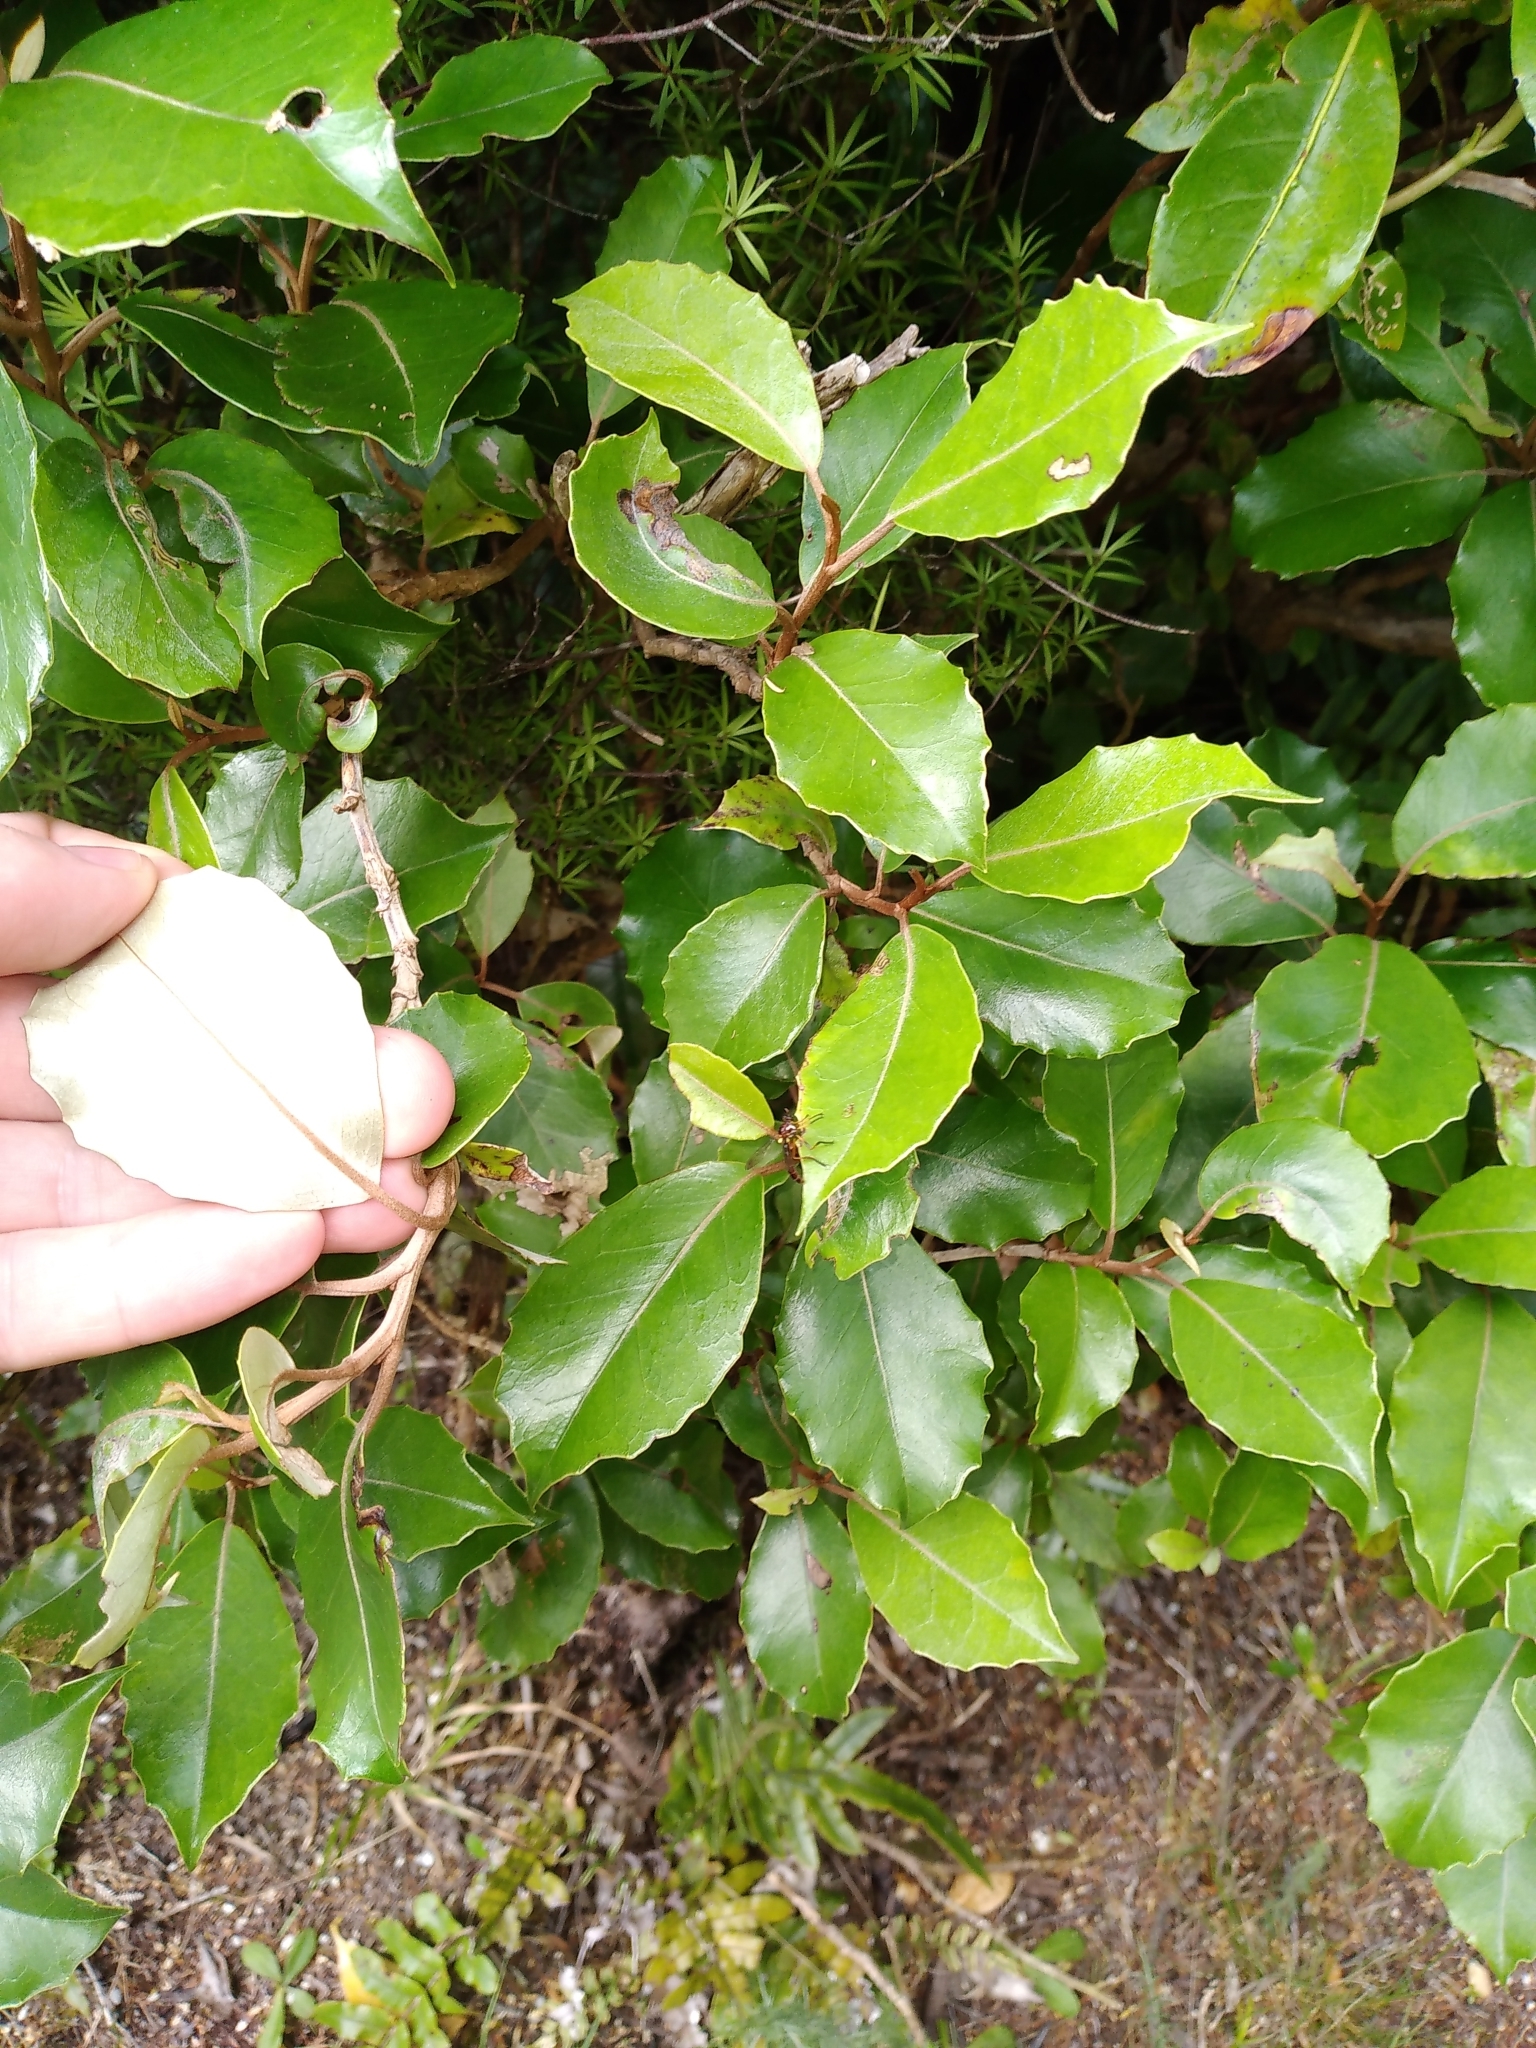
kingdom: Plantae
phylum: Tracheophyta
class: Magnoliopsida
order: Asterales
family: Asteraceae
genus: Olearia
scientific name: Olearia arborescens
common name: Glossy tree daisy
